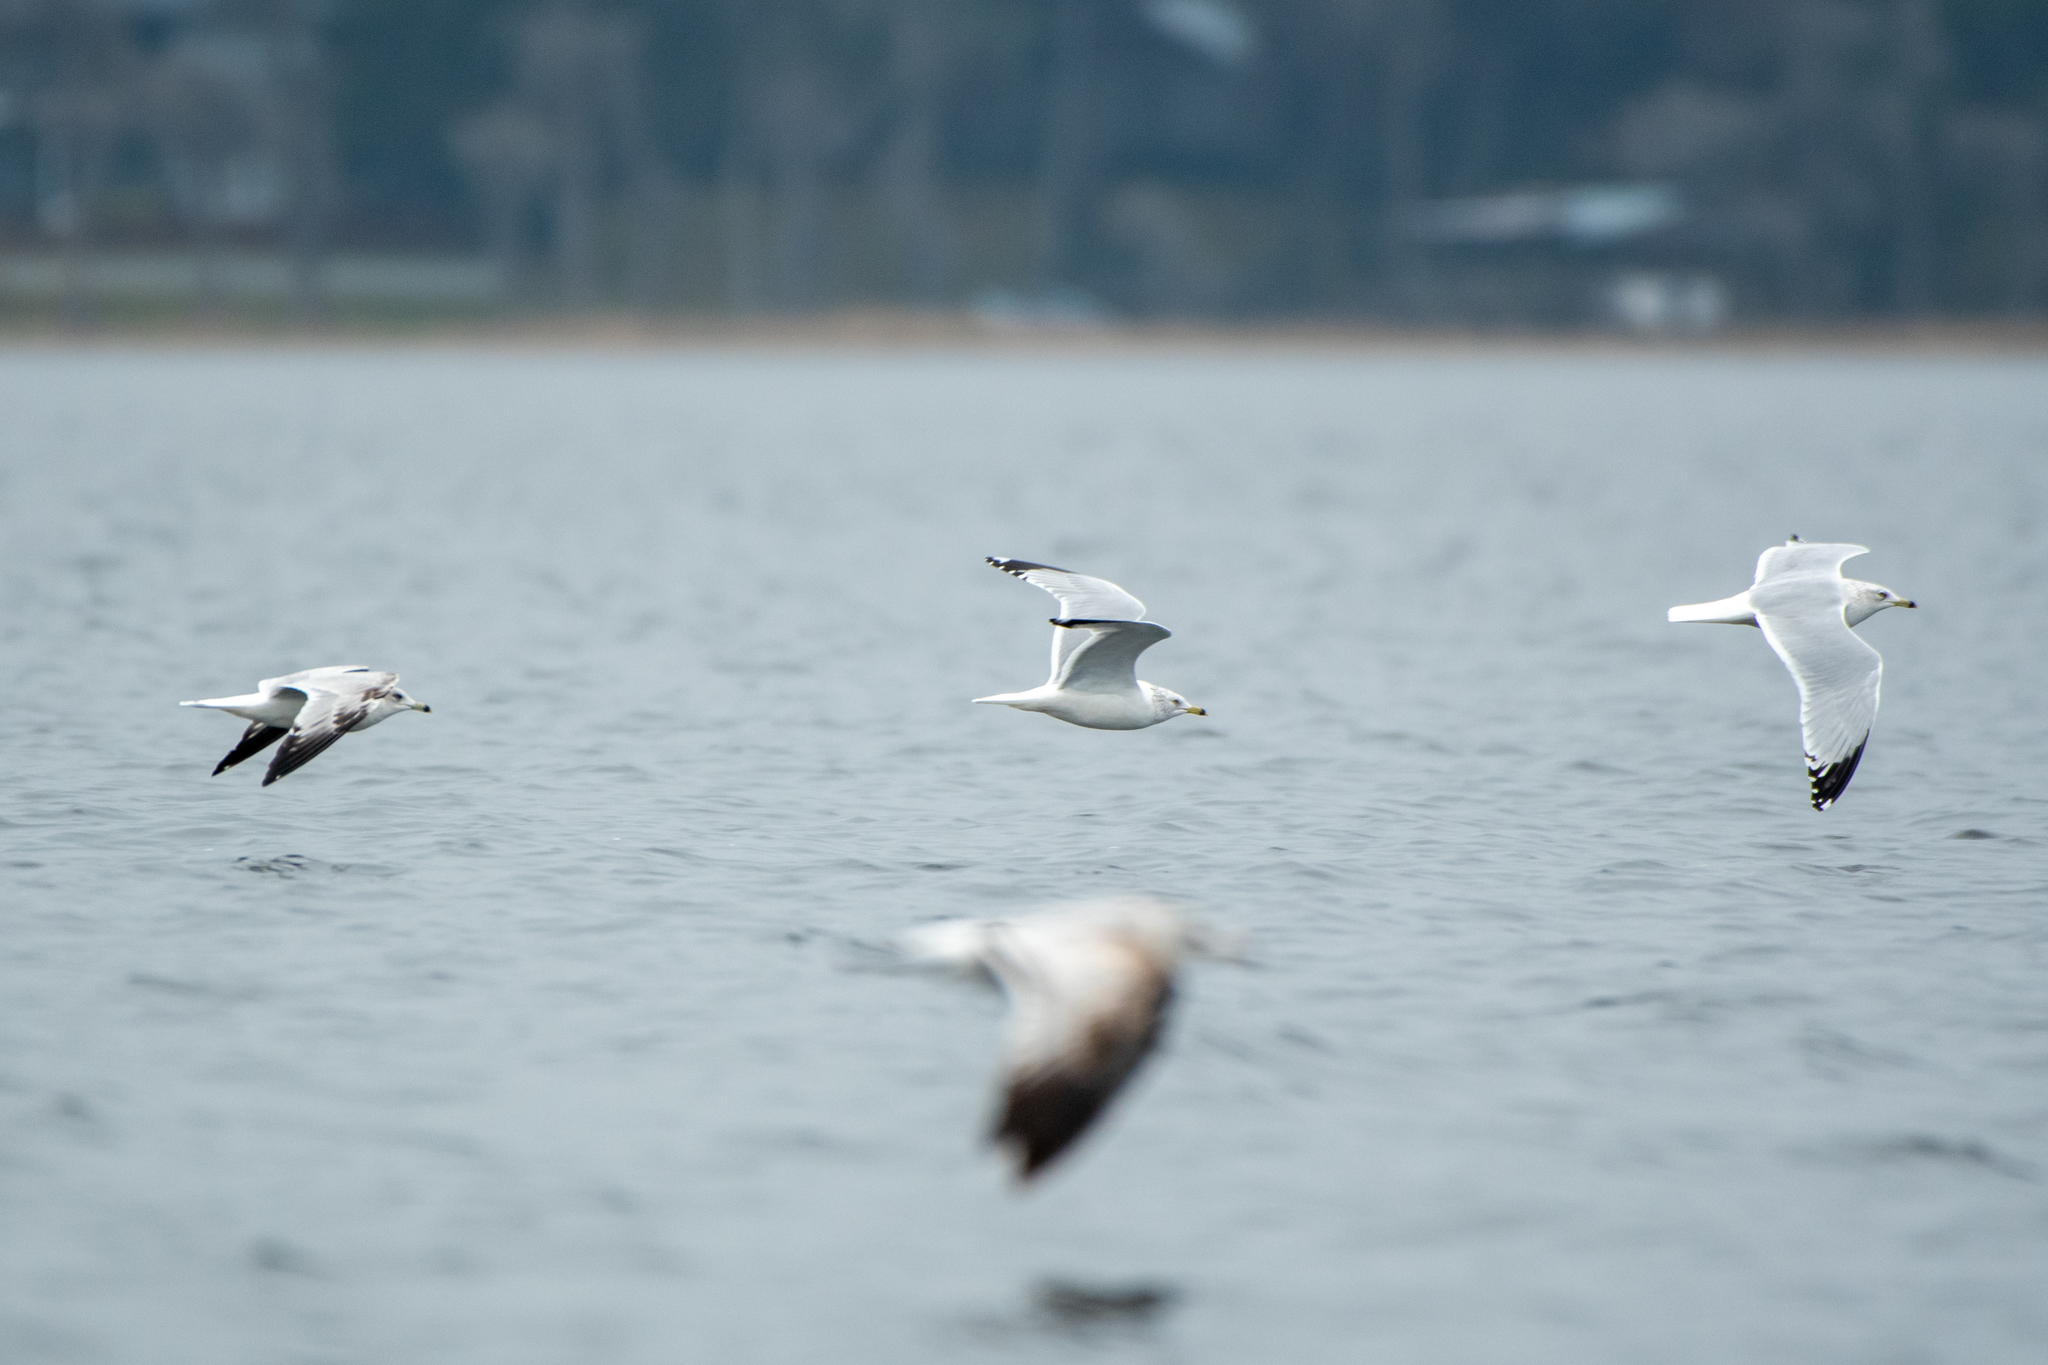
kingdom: Animalia
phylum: Chordata
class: Aves
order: Charadriiformes
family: Laridae
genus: Larus
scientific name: Larus delawarensis
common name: Ring-billed gull
